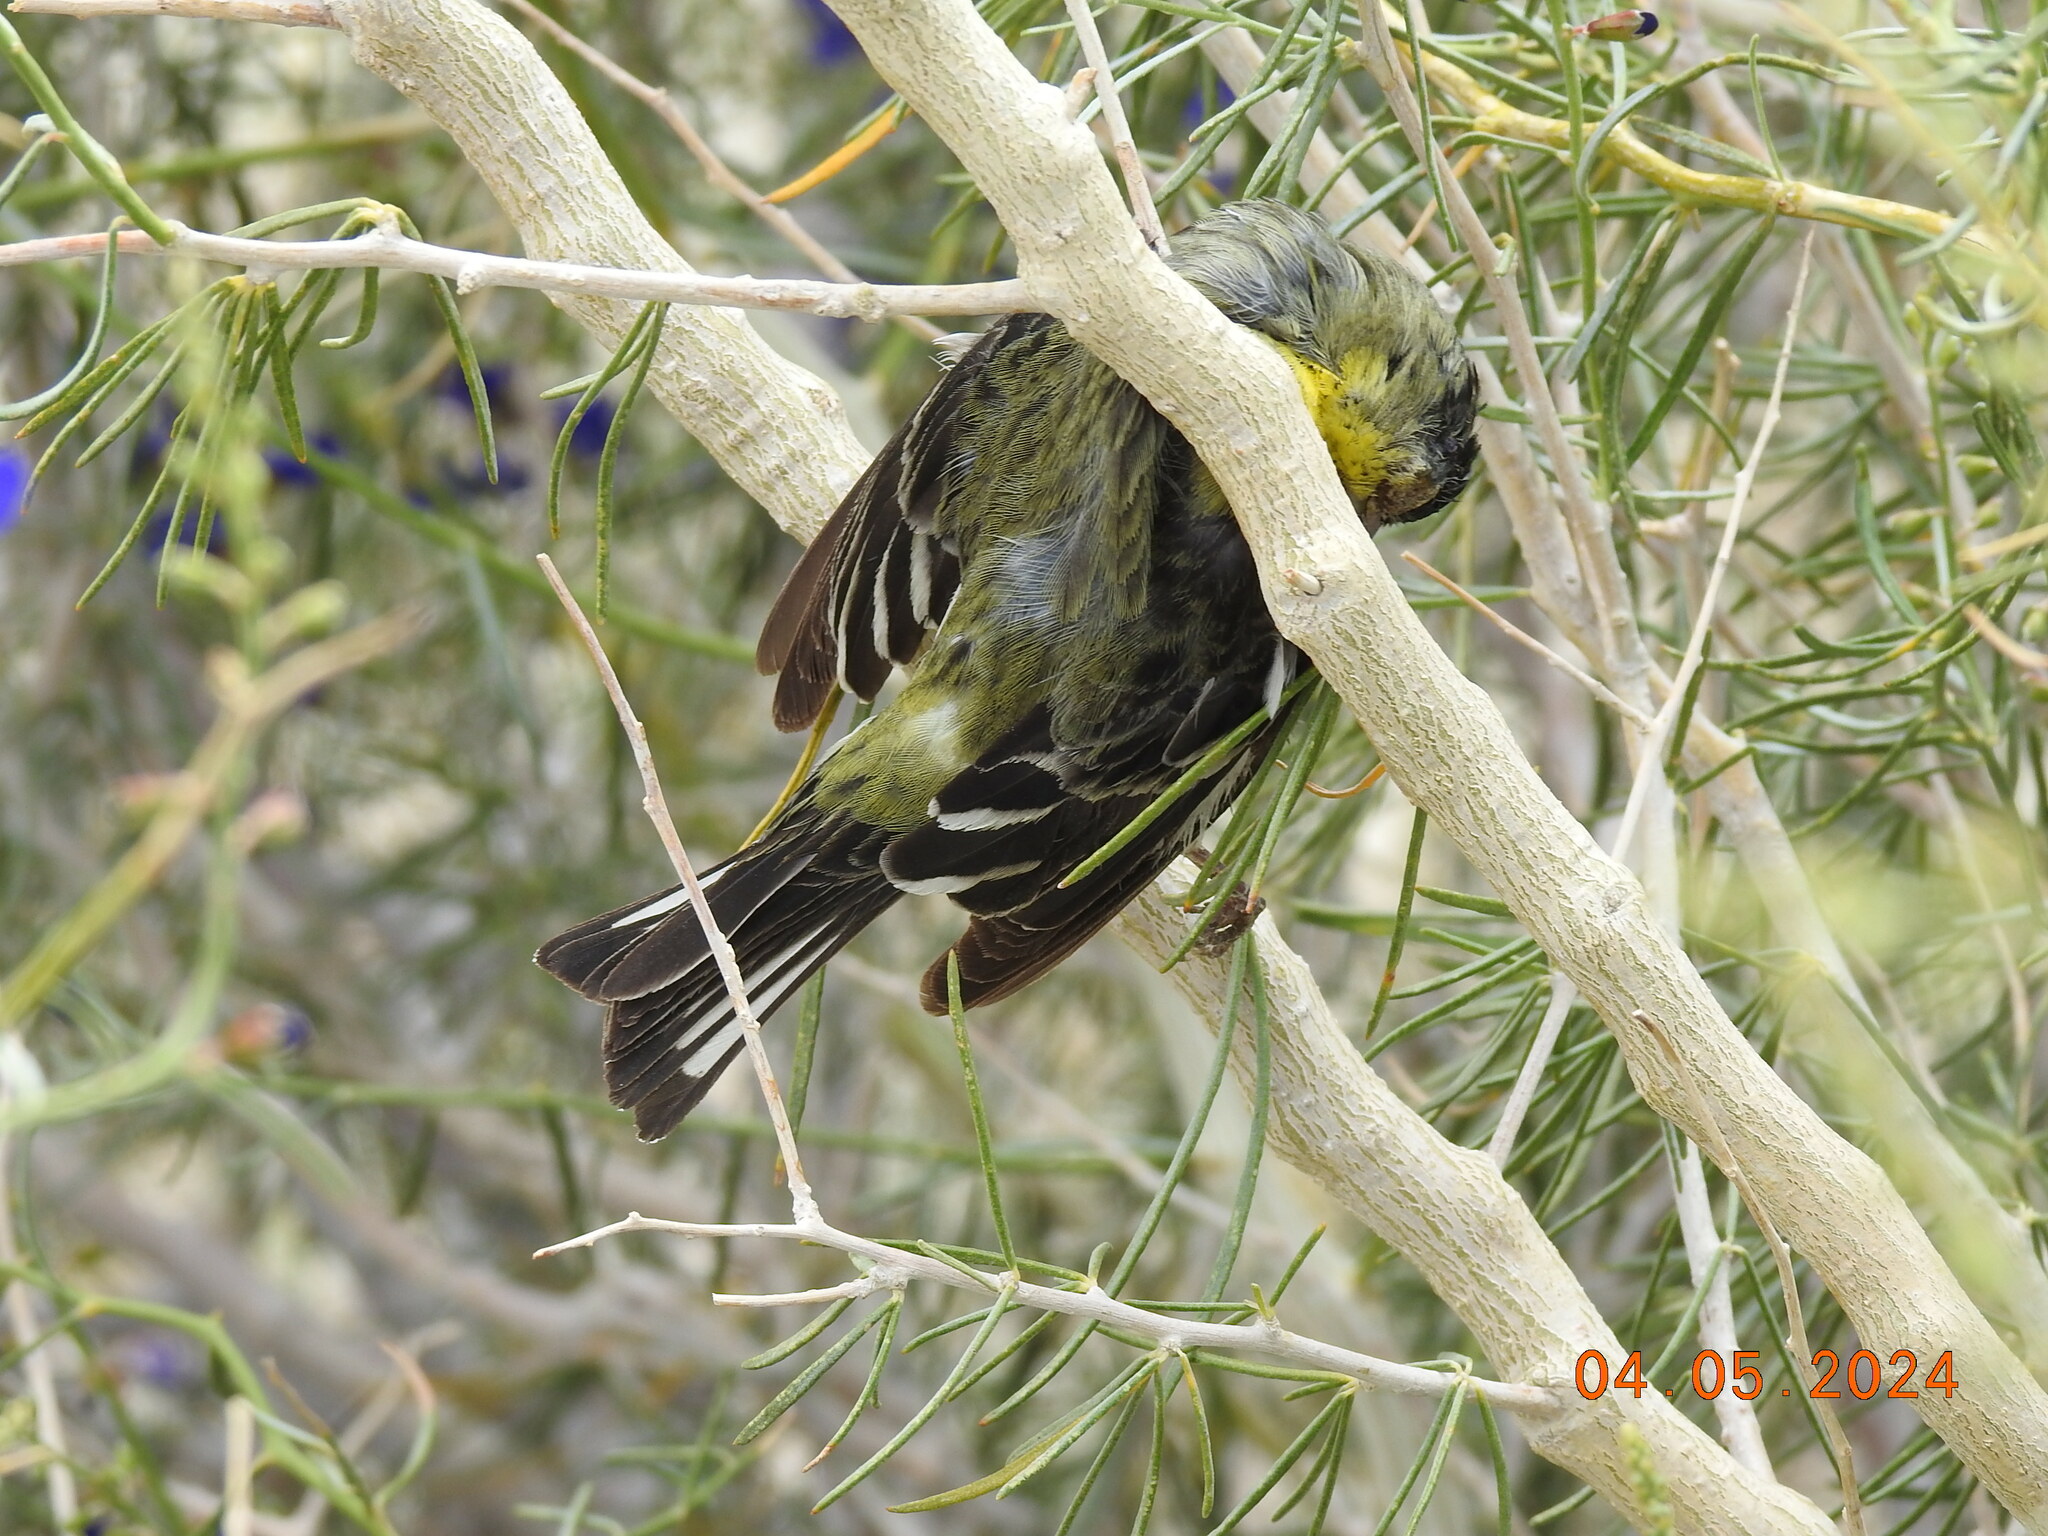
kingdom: Animalia
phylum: Chordata
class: Aves
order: Passeriformes
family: Laniidae
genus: Lanius
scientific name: Lanius ludovicianus
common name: Loggerhead shrike
